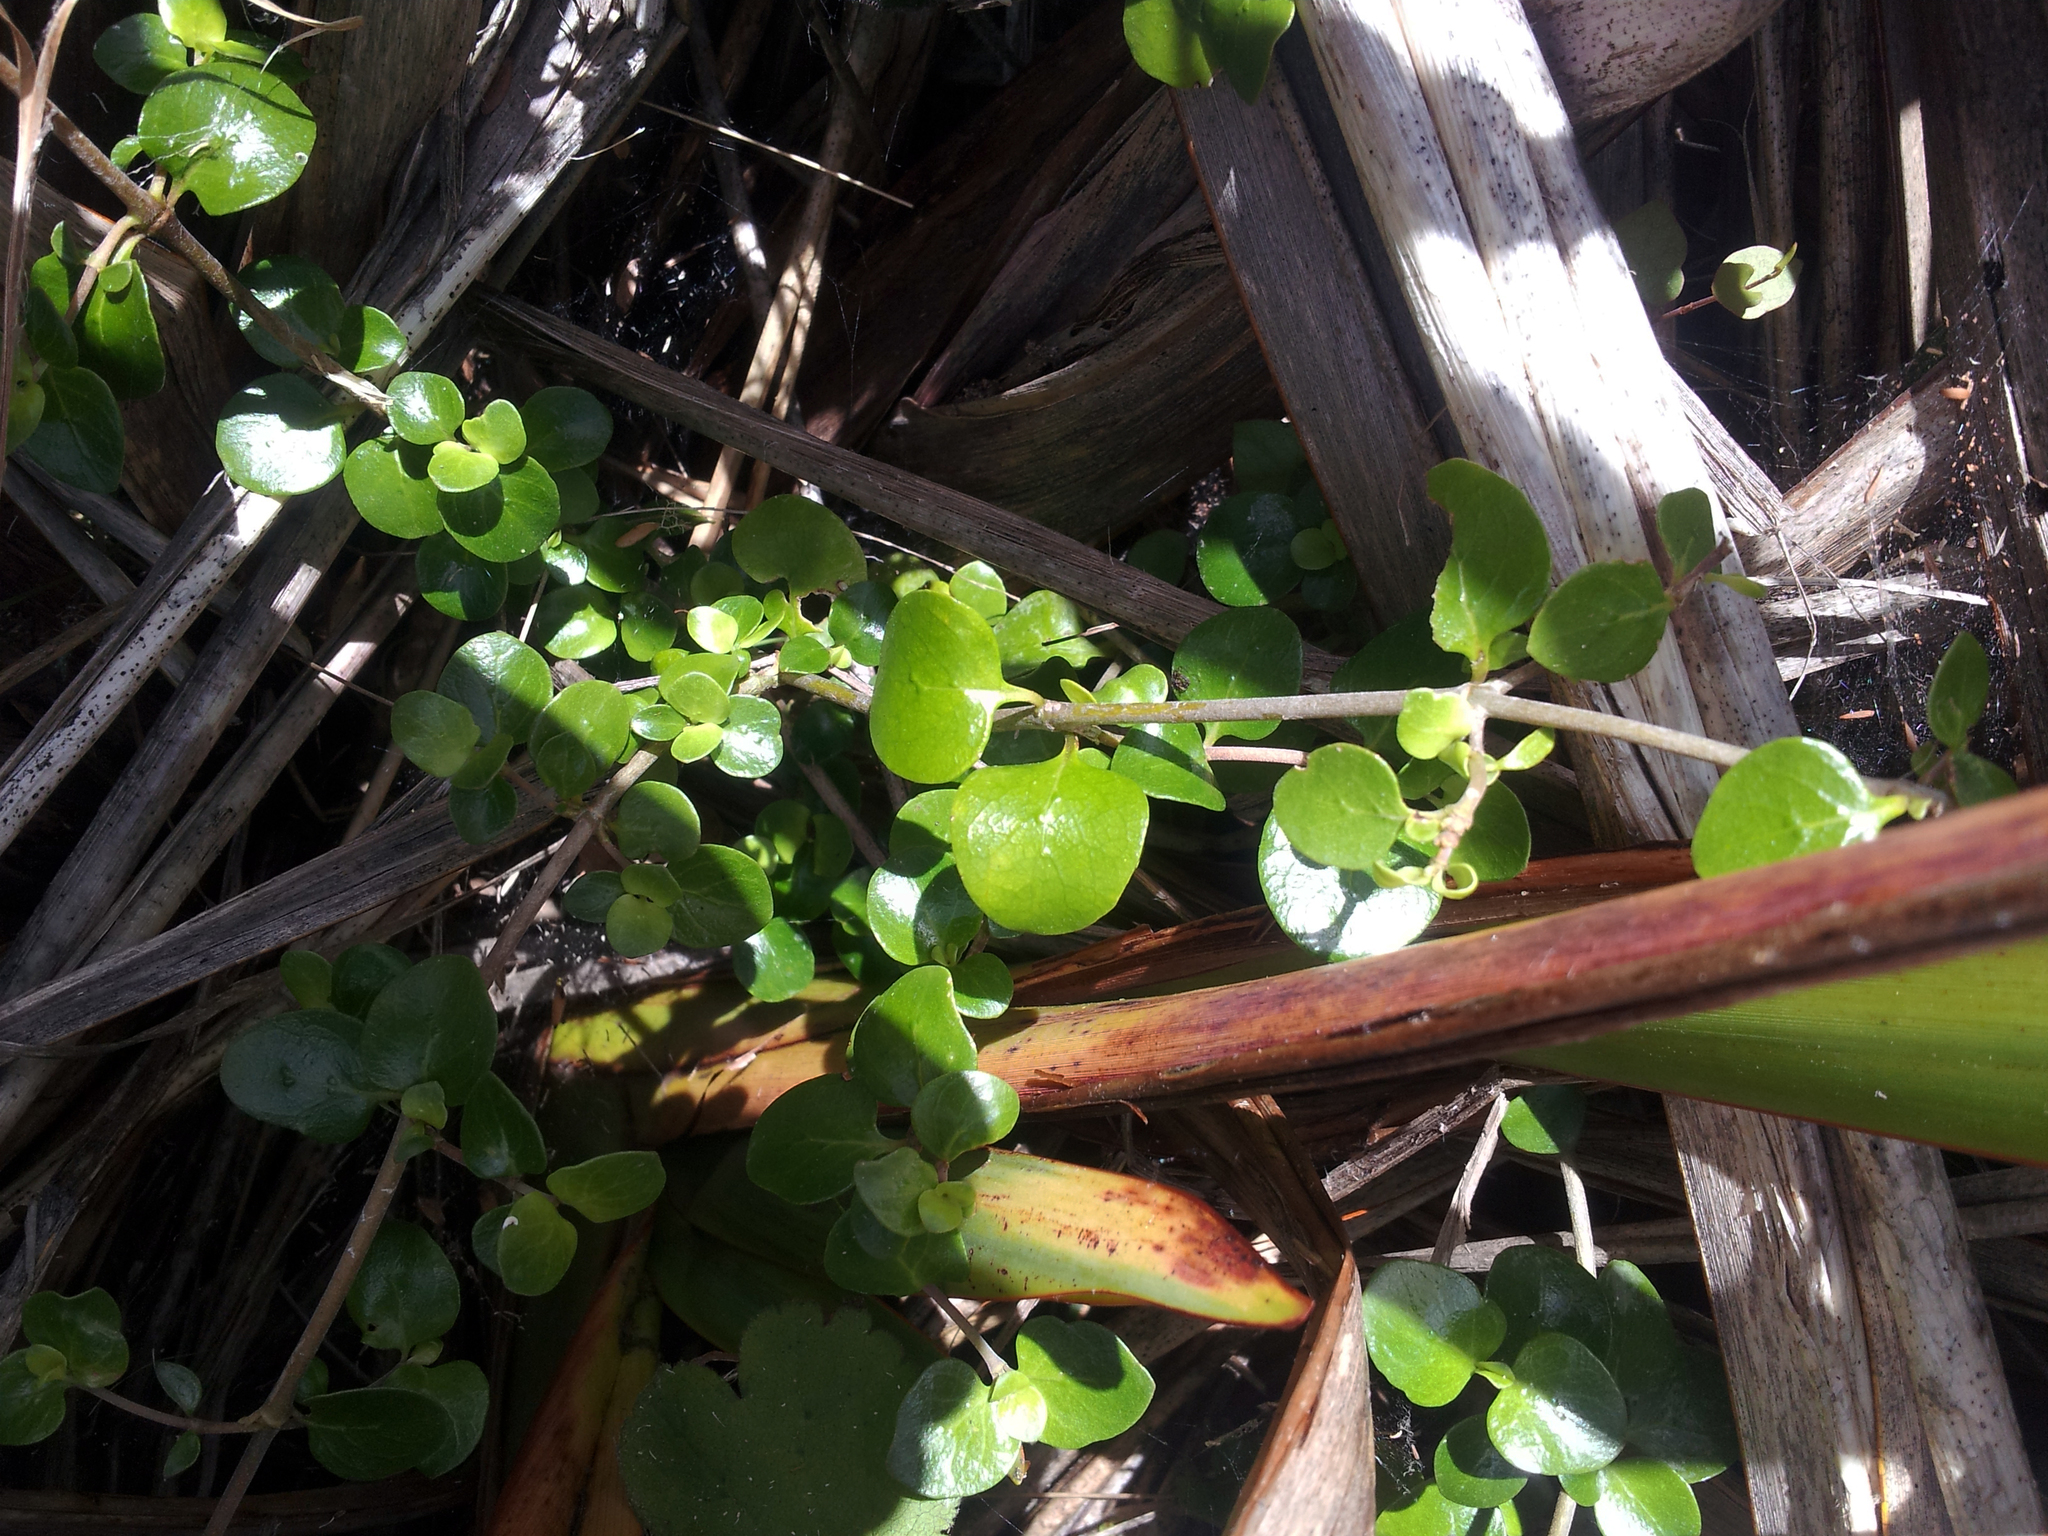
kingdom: Plantae
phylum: Tracheophyta
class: Magnoliopsida
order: Gentianales
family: Rubiaceae
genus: Coprosma
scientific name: Coprosma neglecta
